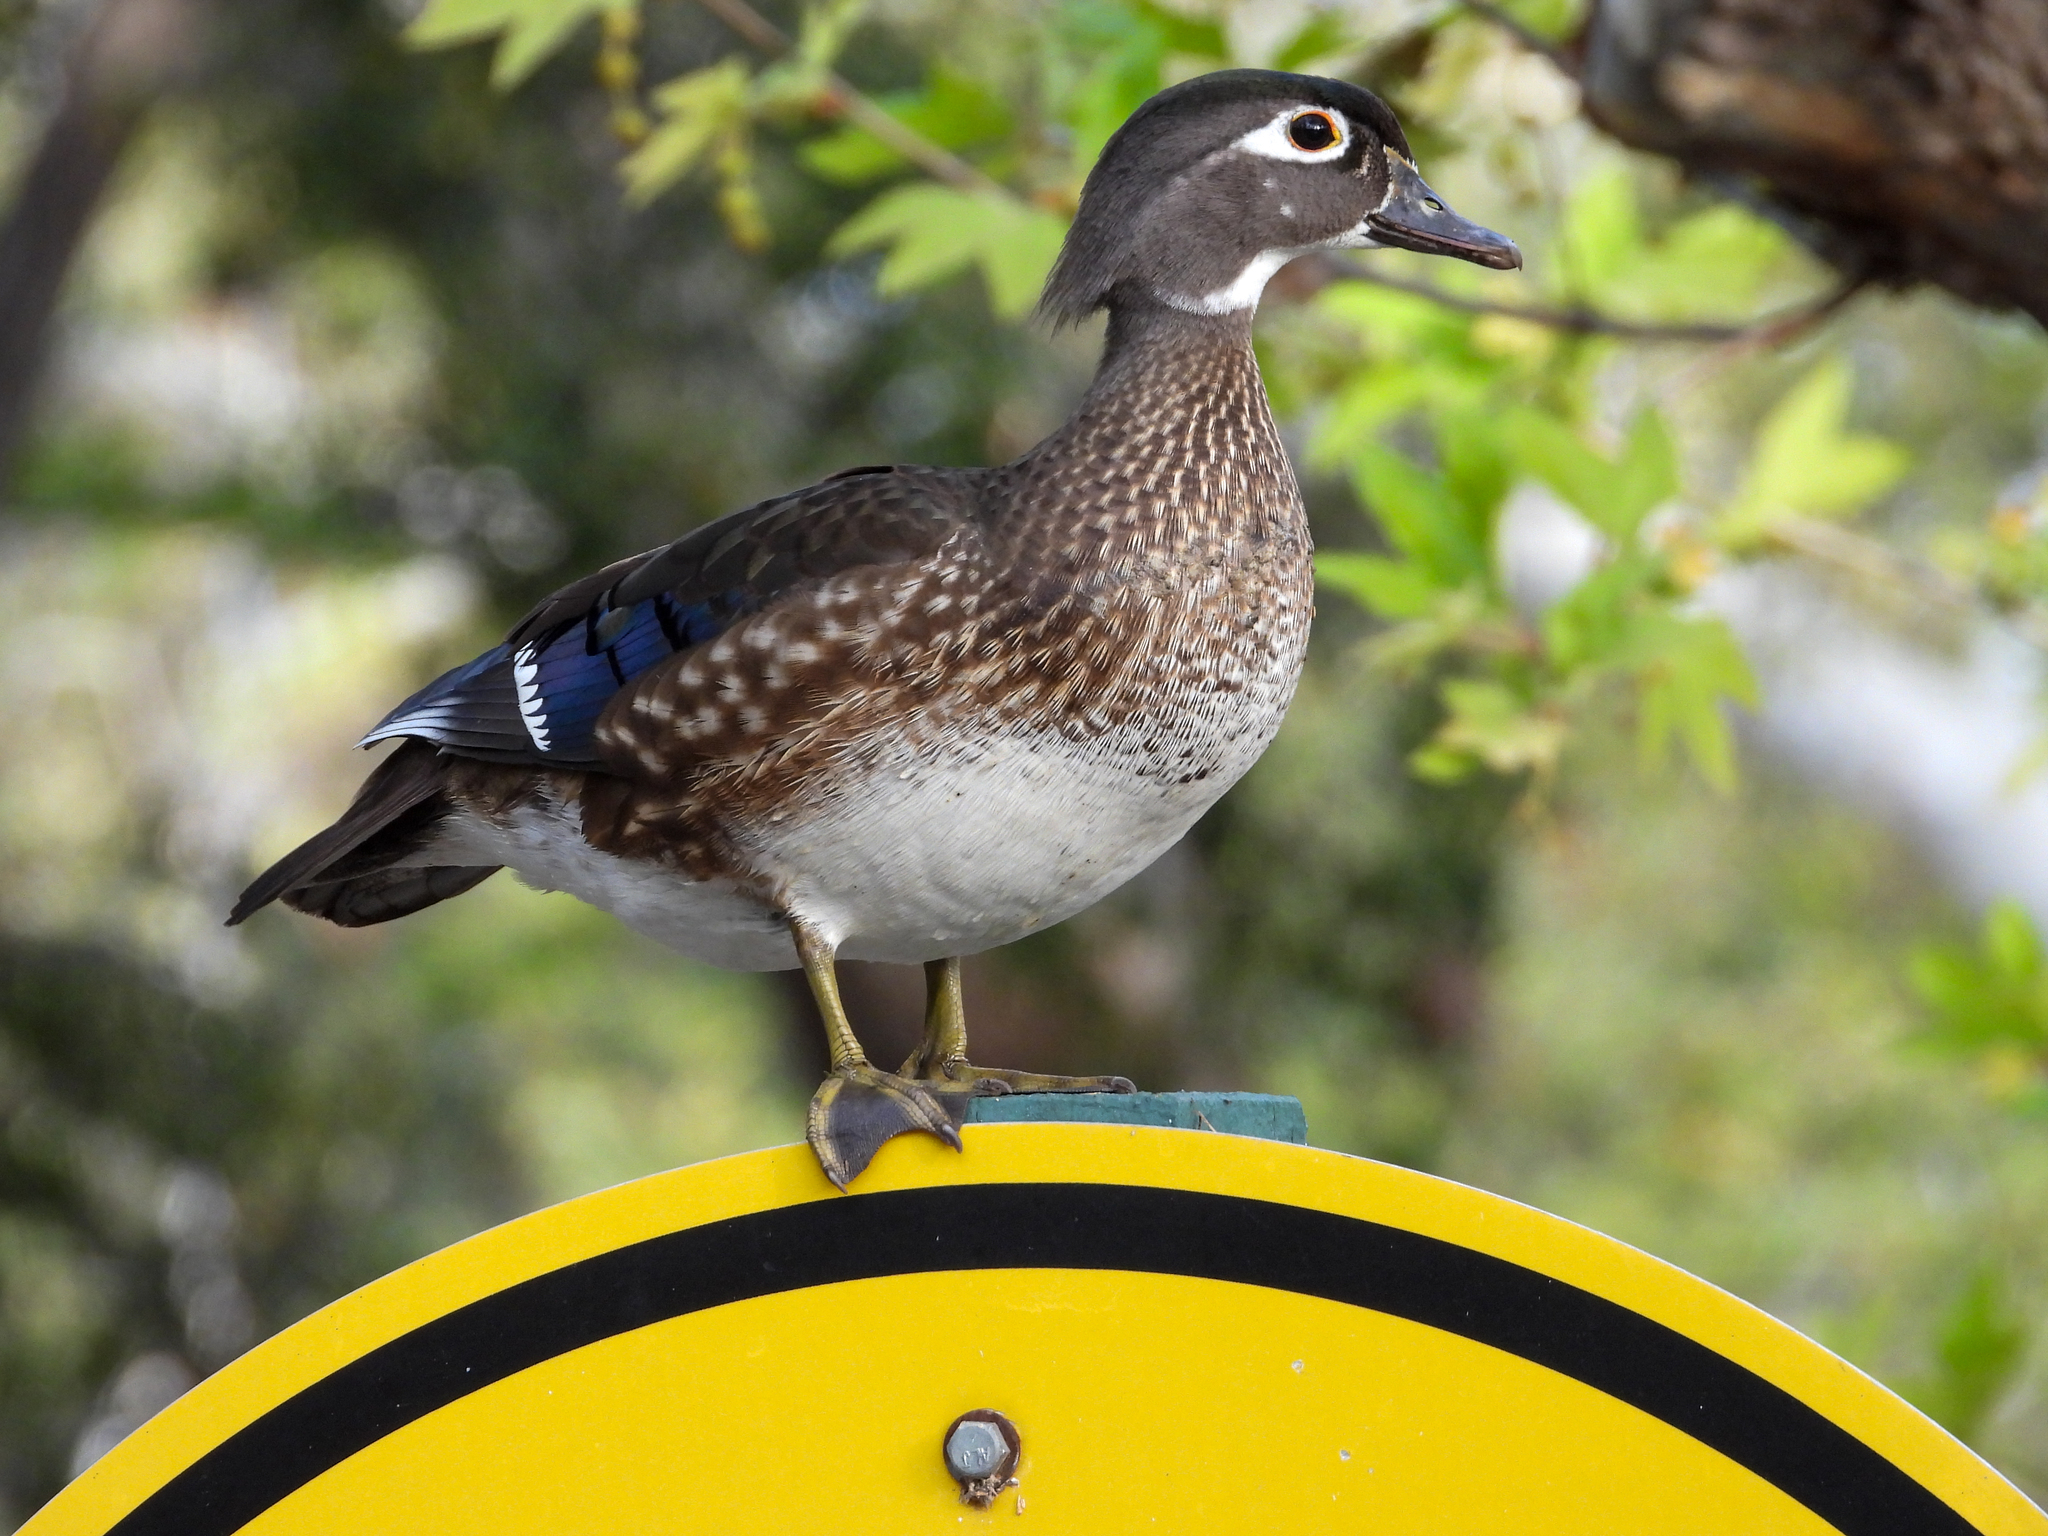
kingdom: Animalia
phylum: Chordata
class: Aves
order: Anseriformes
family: Anatidae
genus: Aix
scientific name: Aix sponsa
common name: Wood duck
